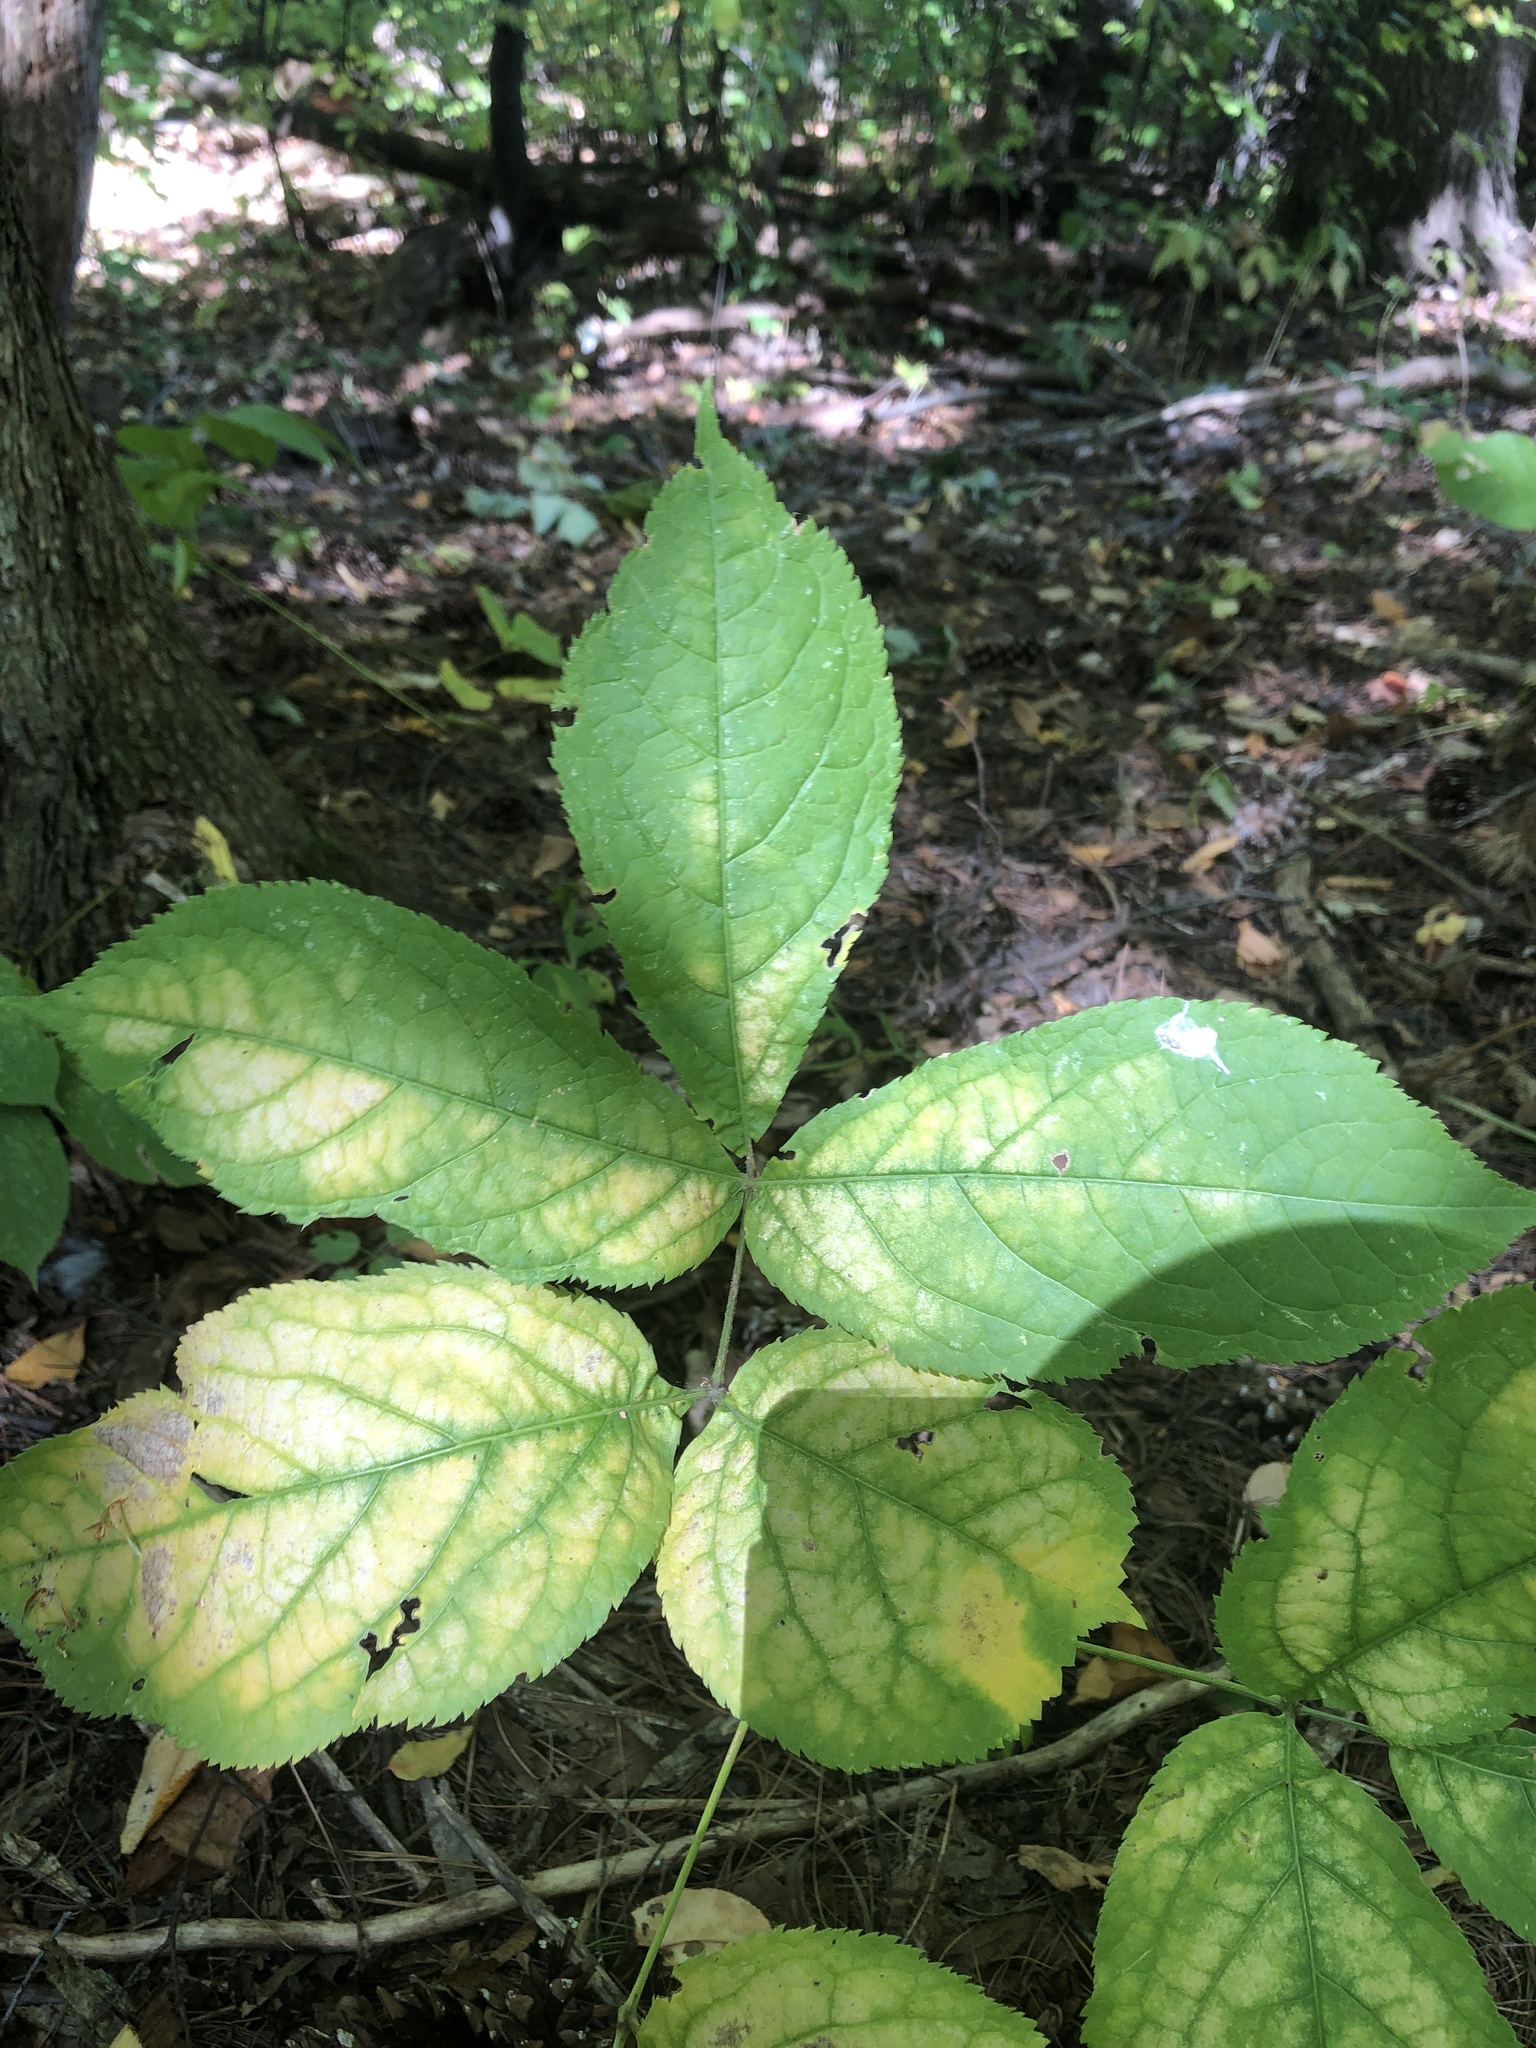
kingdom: Plantae
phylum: Tracheophyta
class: Magnoliopsida
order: Apiales
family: Araliaceae
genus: Aralia
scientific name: Aralia nudicaulis
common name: Wild sarsaparilla
